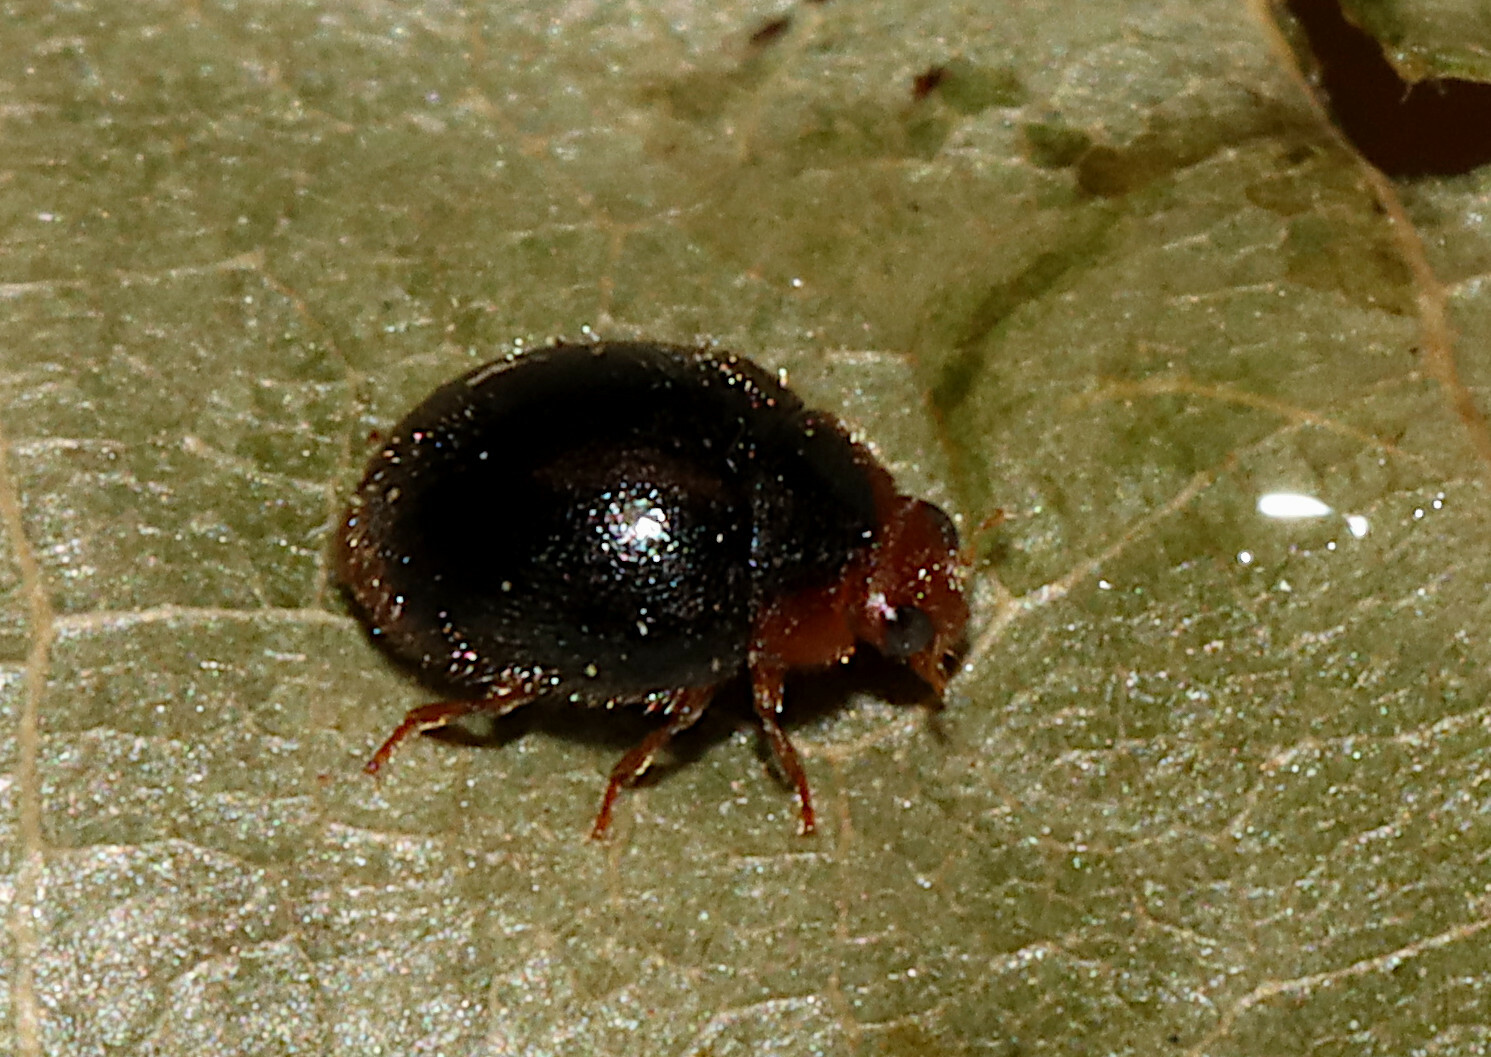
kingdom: Animalia
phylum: Arthropoda
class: Insecta
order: Coleoptera
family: Coccinellidae
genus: Cryptolaemus
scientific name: Cryptolaemus montrouzieri
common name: Mealybug destroyer
